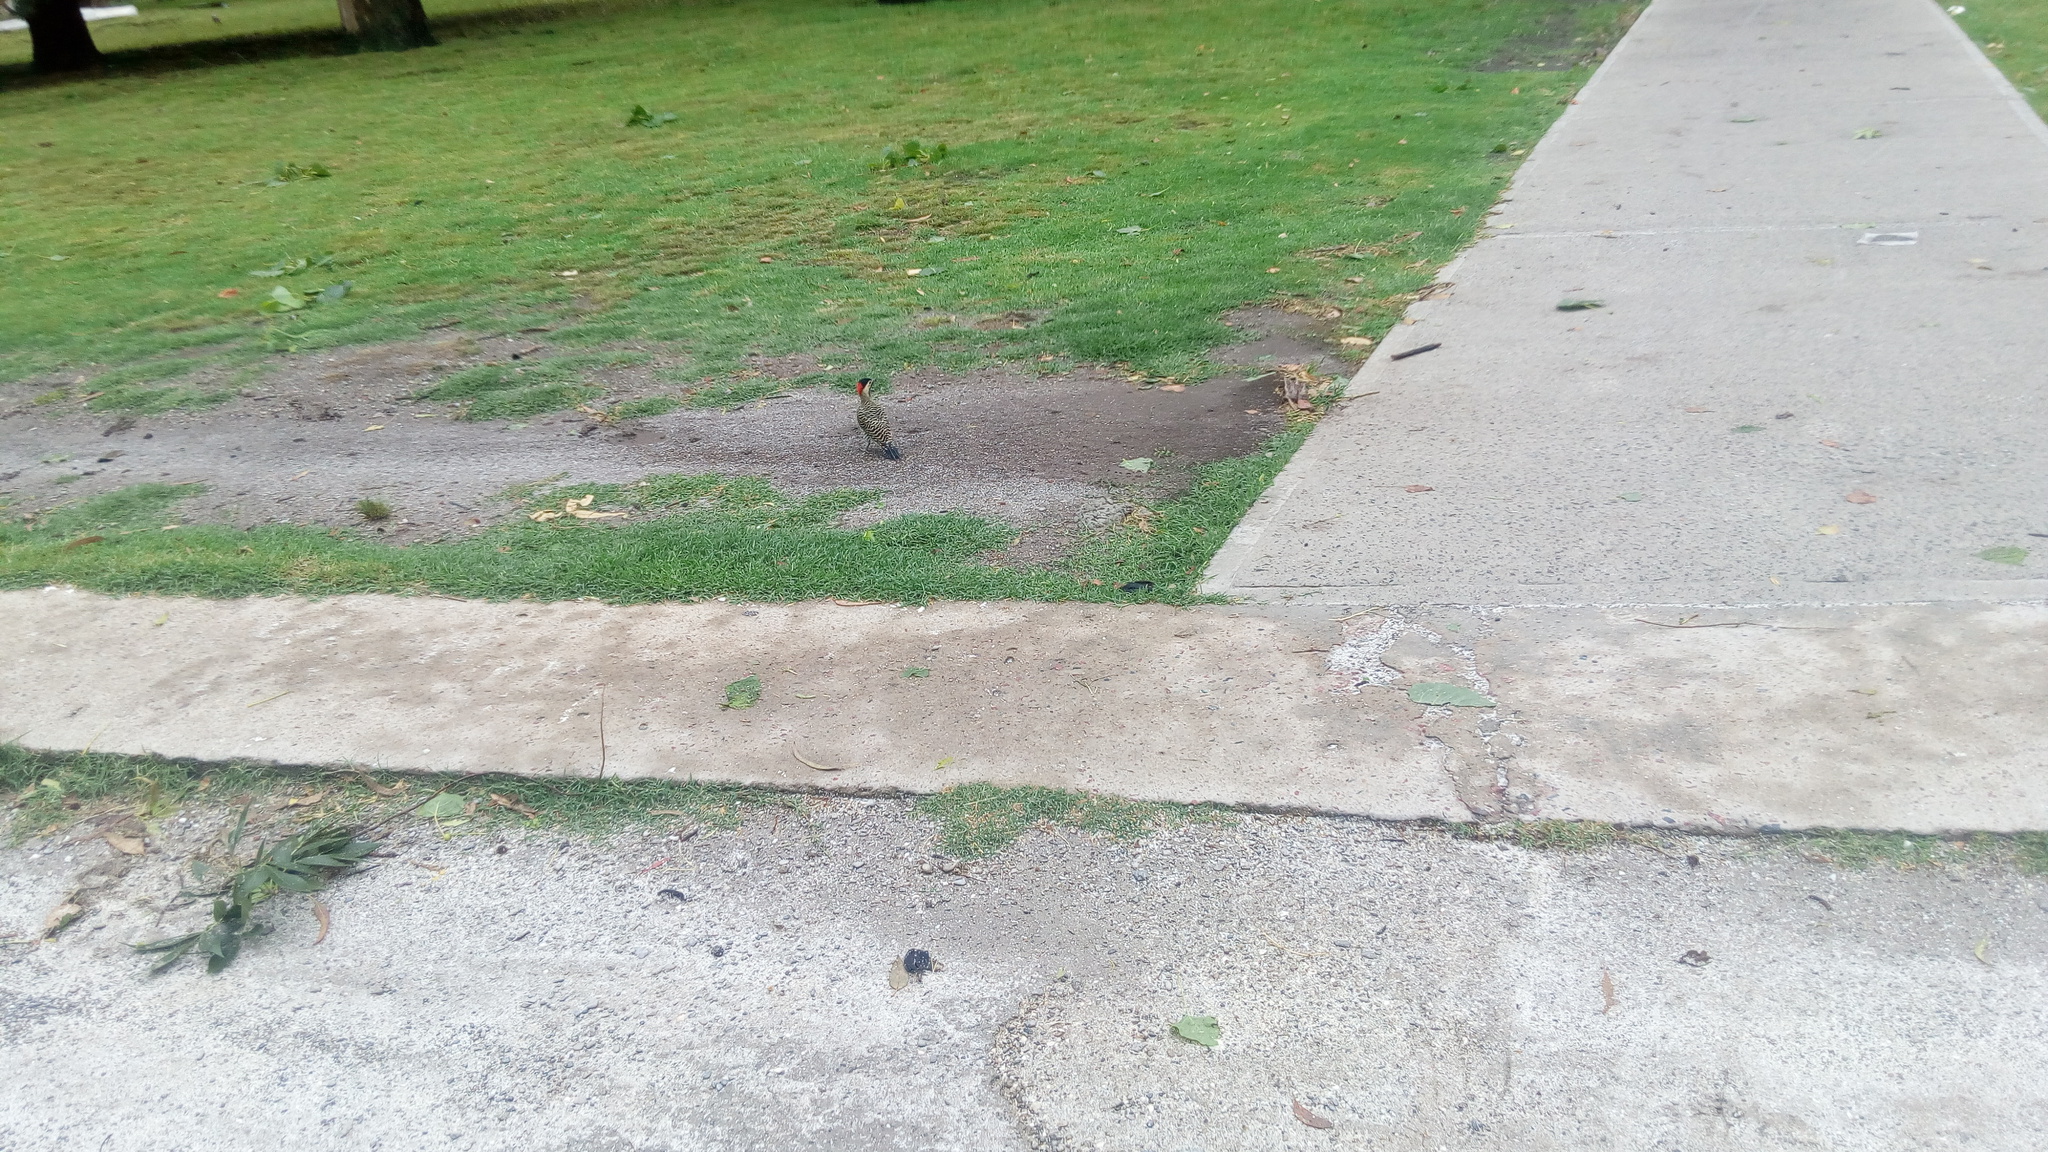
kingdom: Animalia
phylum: Chordata
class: Aves
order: Piciformes
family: Picidae
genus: Colaptes
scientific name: Colaptes melanochloros
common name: Green-barred woodpecker
